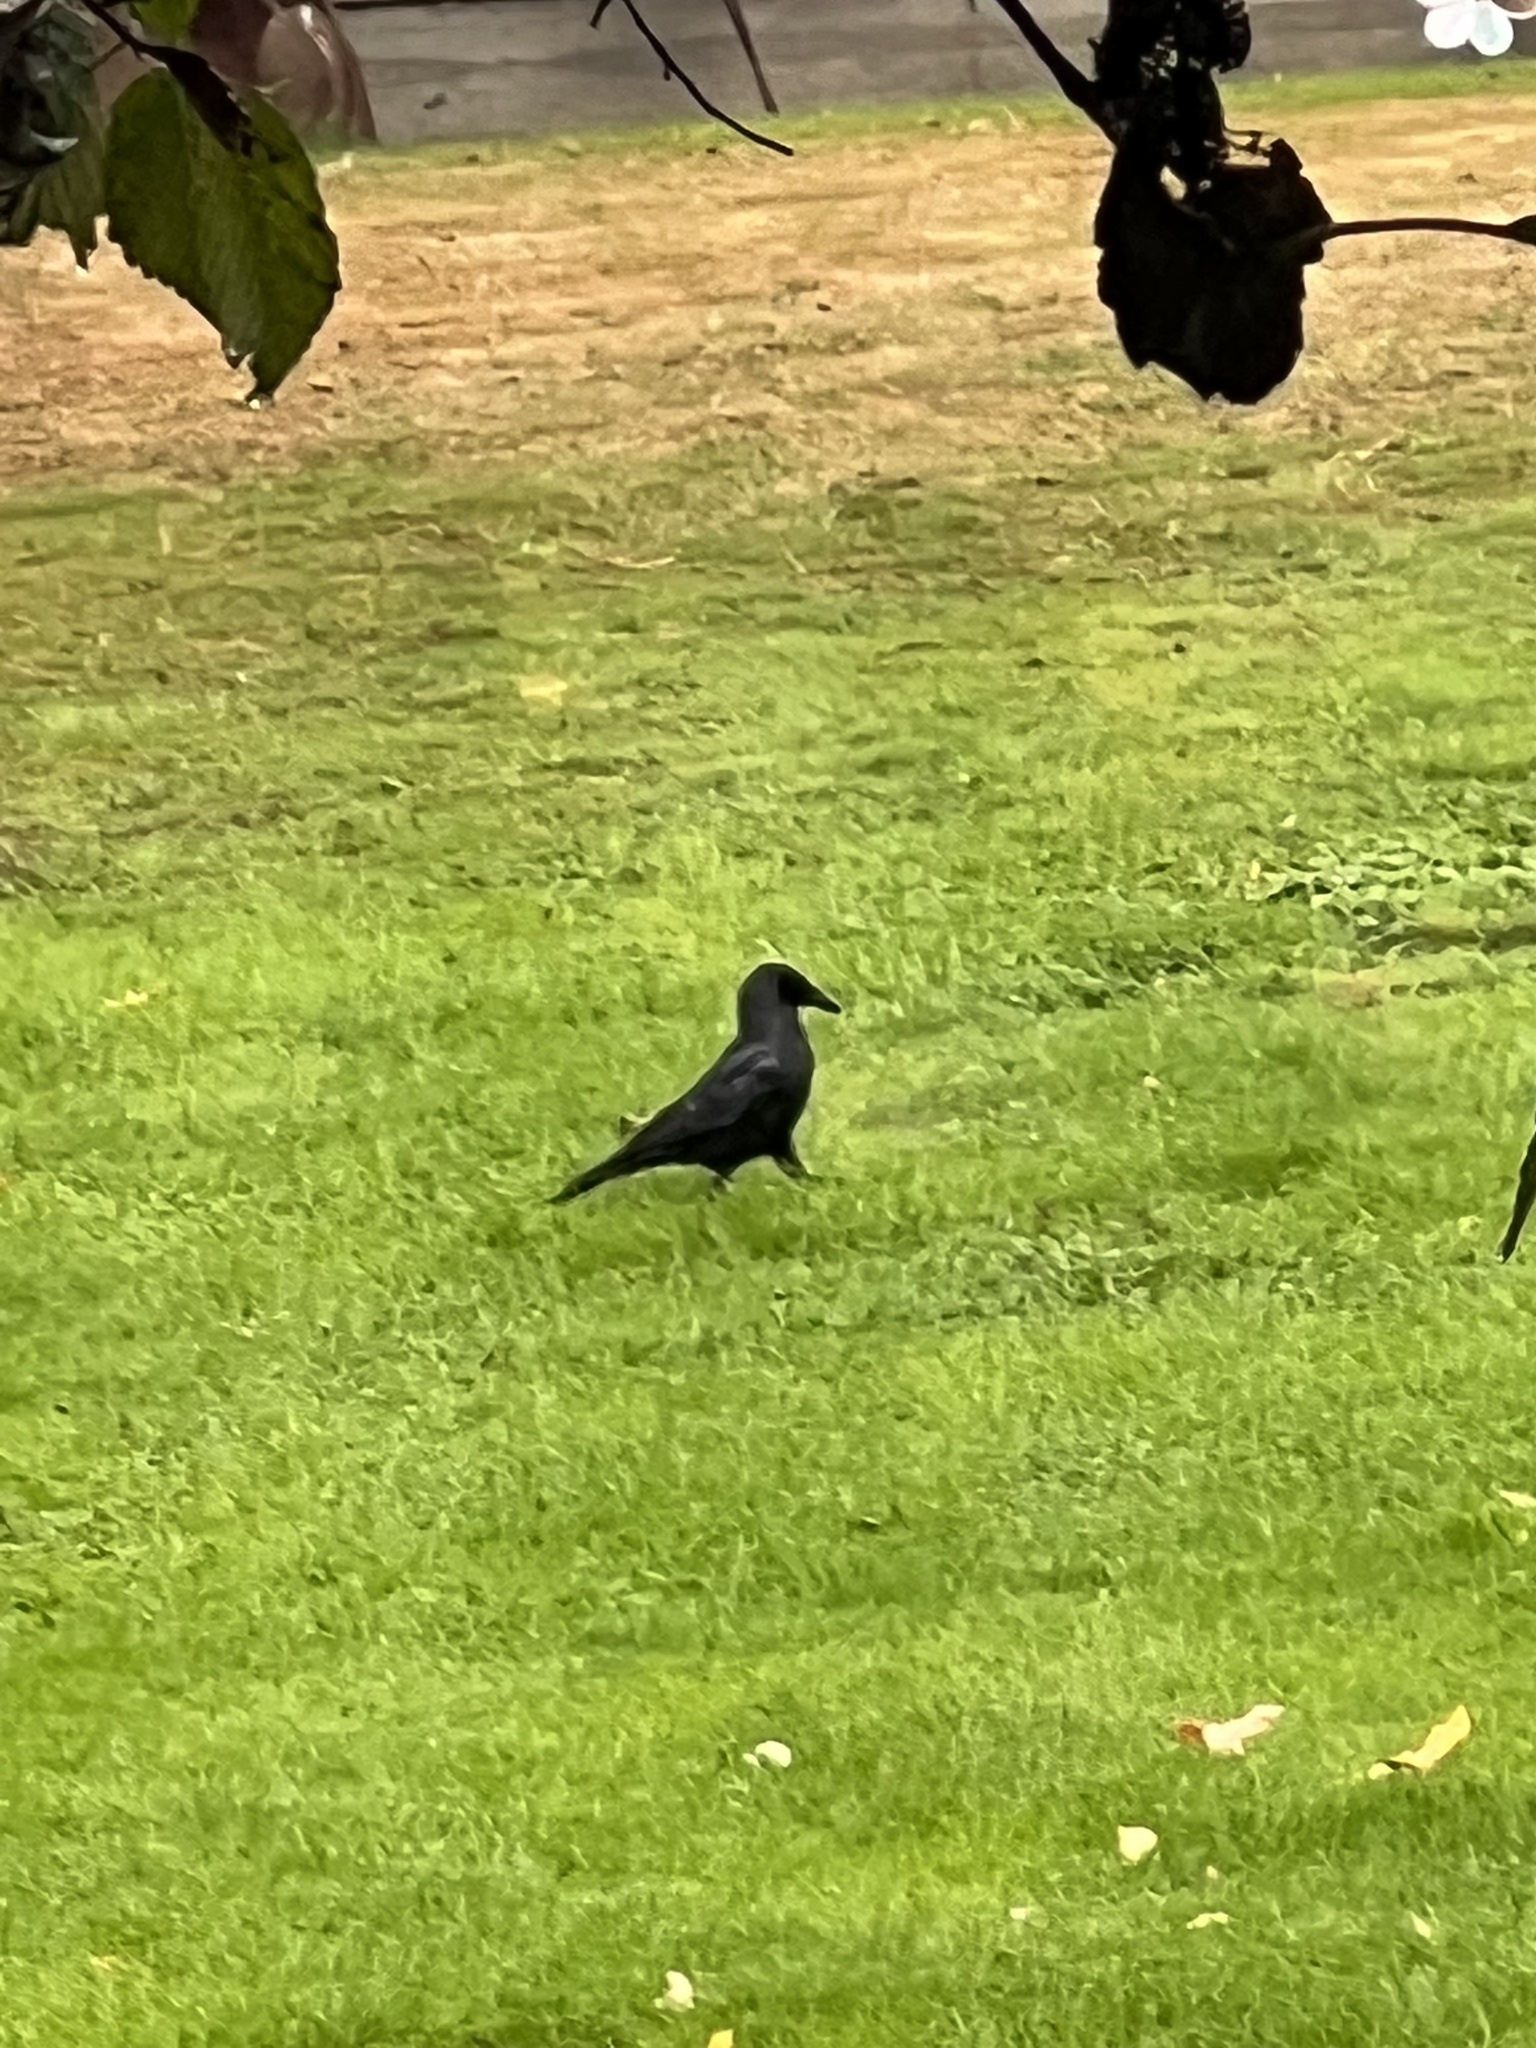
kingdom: Animalia
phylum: Chordata
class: Aves
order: Passeriformes
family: Corvidae
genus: Corvus
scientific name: Corvus brachyrhynchos
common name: American crow
